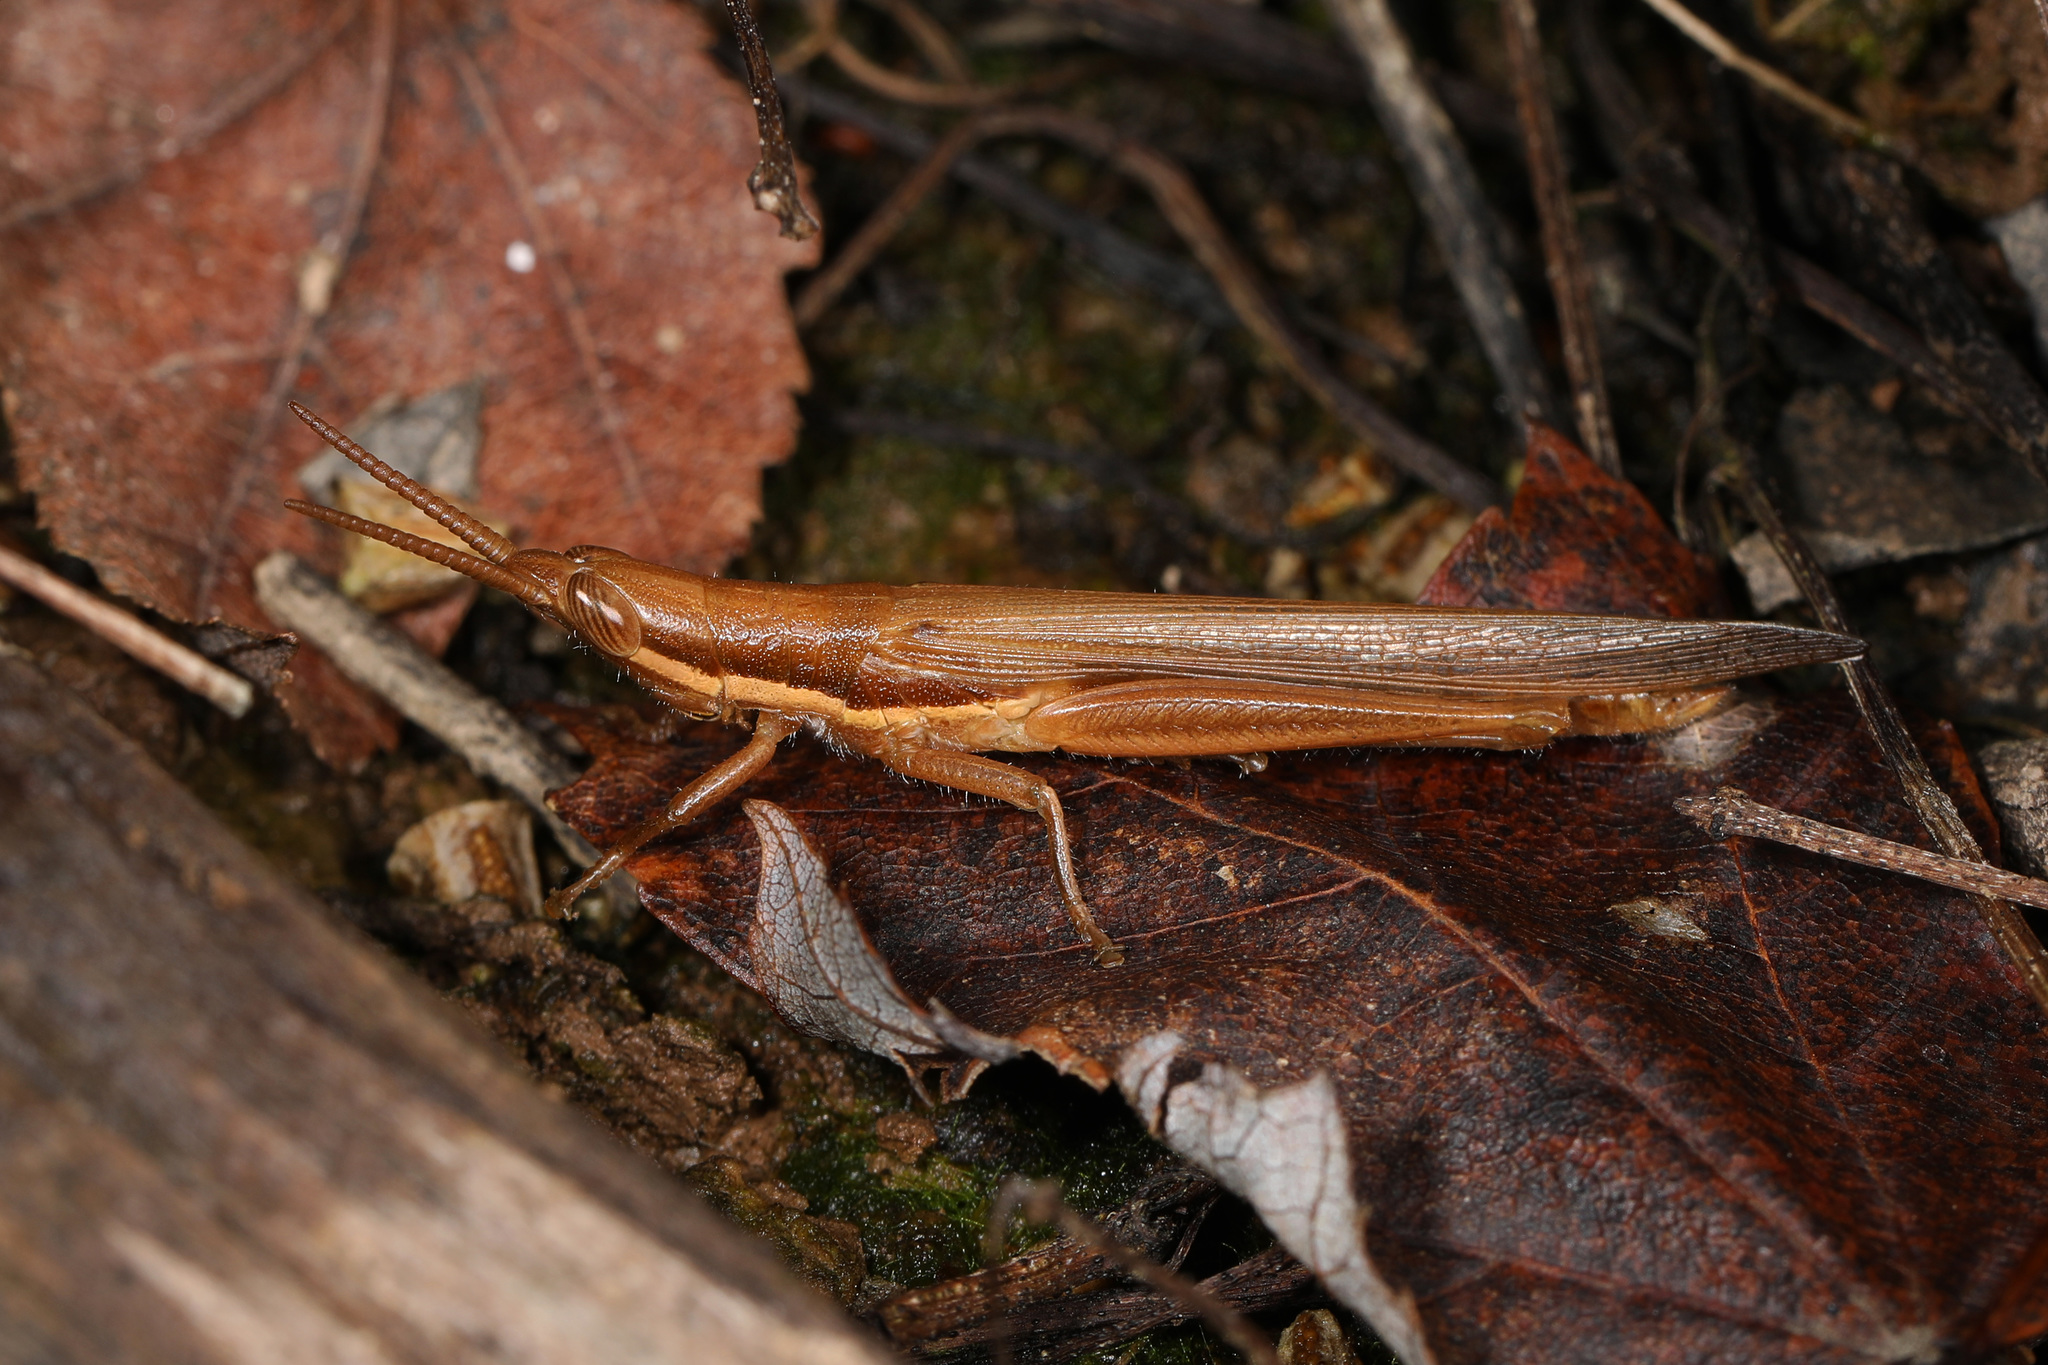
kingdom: Animalia
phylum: Arthropoda
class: Insecta
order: Orthoptera
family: Acrididae
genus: Leptysma
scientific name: Leptysma marginicollis
